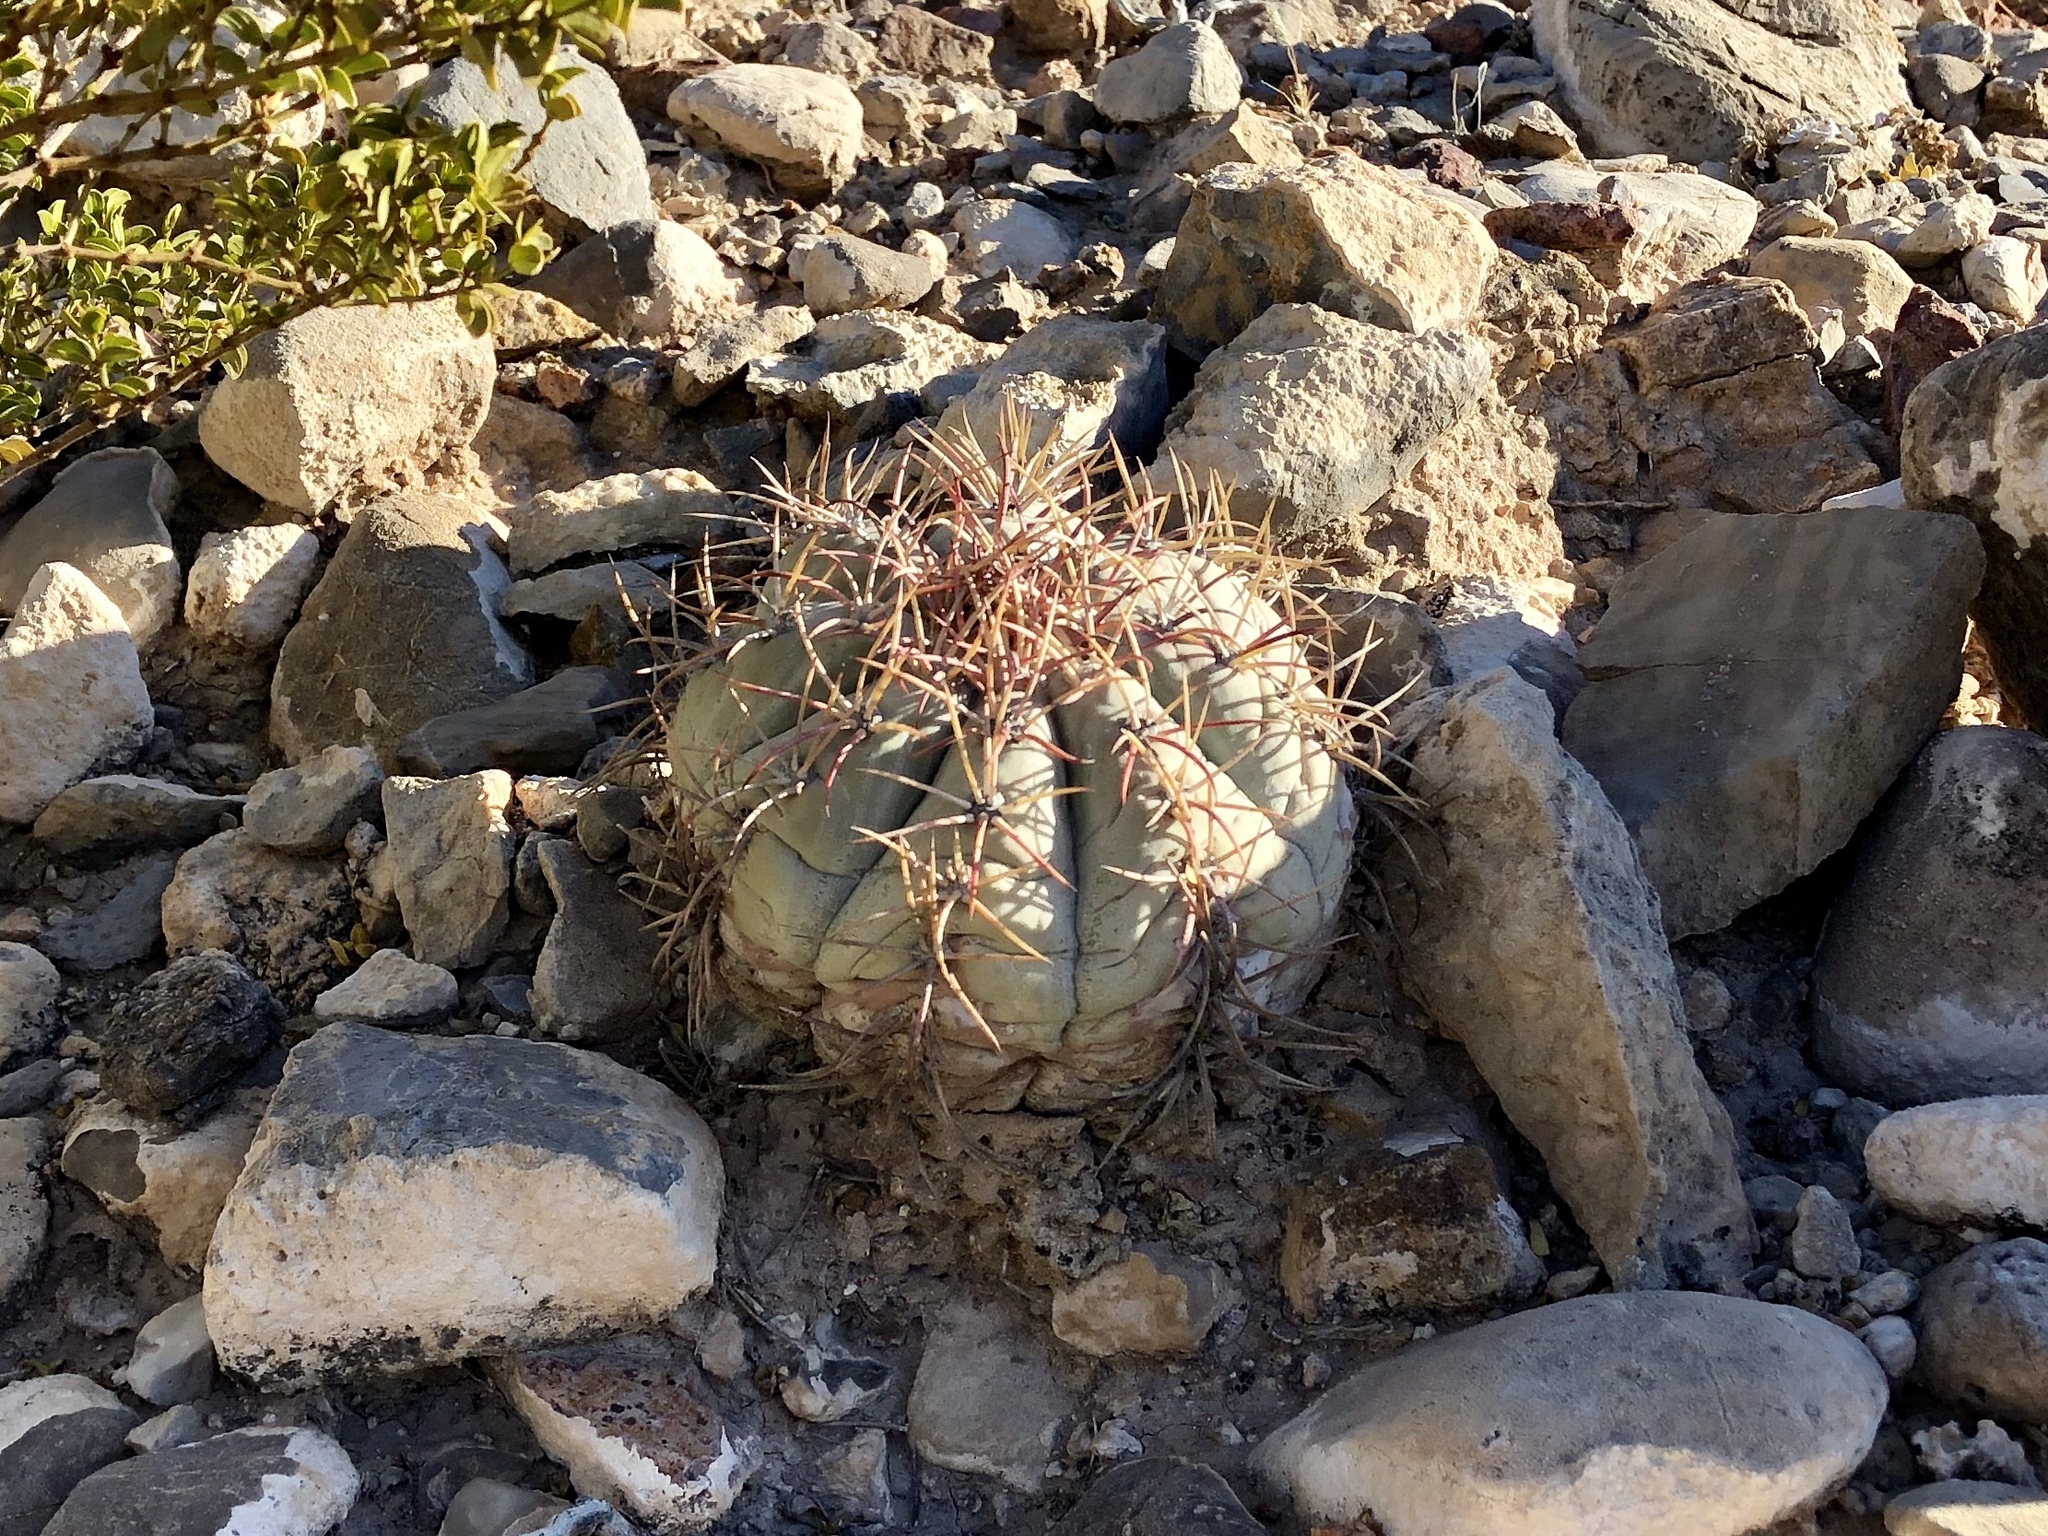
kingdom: Plantae
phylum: Tracheophyta
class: Magnoliopsida
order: Caryophyllales
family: Cactaceae
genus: Echinocactus
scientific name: Echinocactus horizonthalonius
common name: Devilshead
